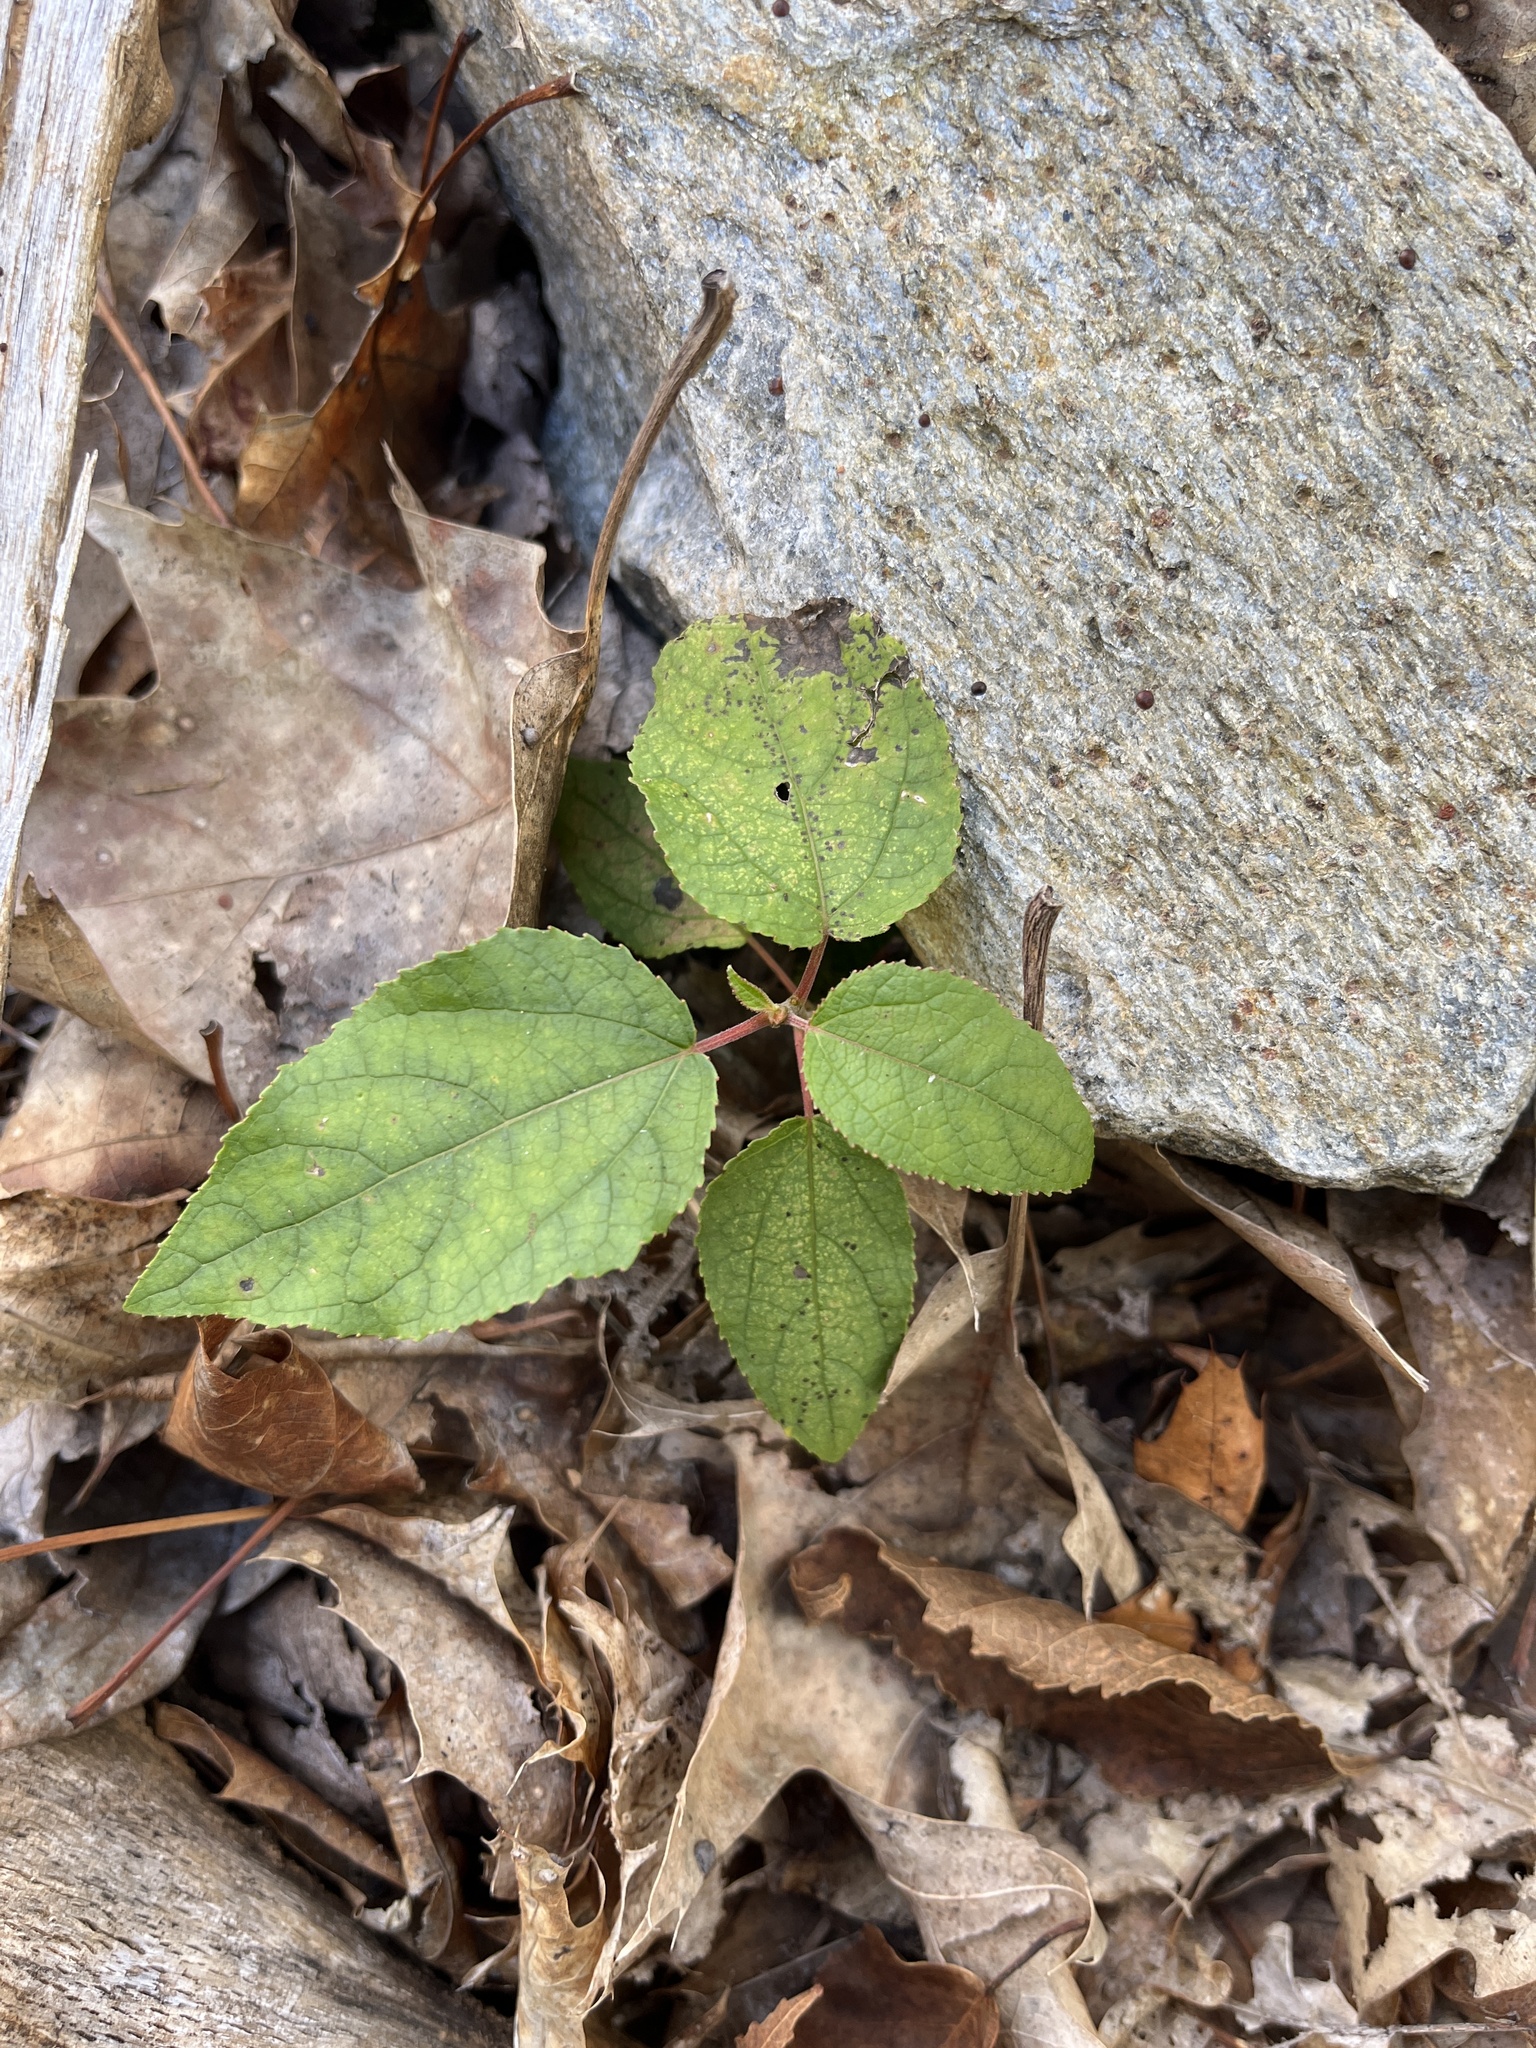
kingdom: Plantae
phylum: Tracheophyta
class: Magnoliopsida
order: Rosales
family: Rhamnaceae
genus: Ceanothus
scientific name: Ceanothus americanus
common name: Redroot
